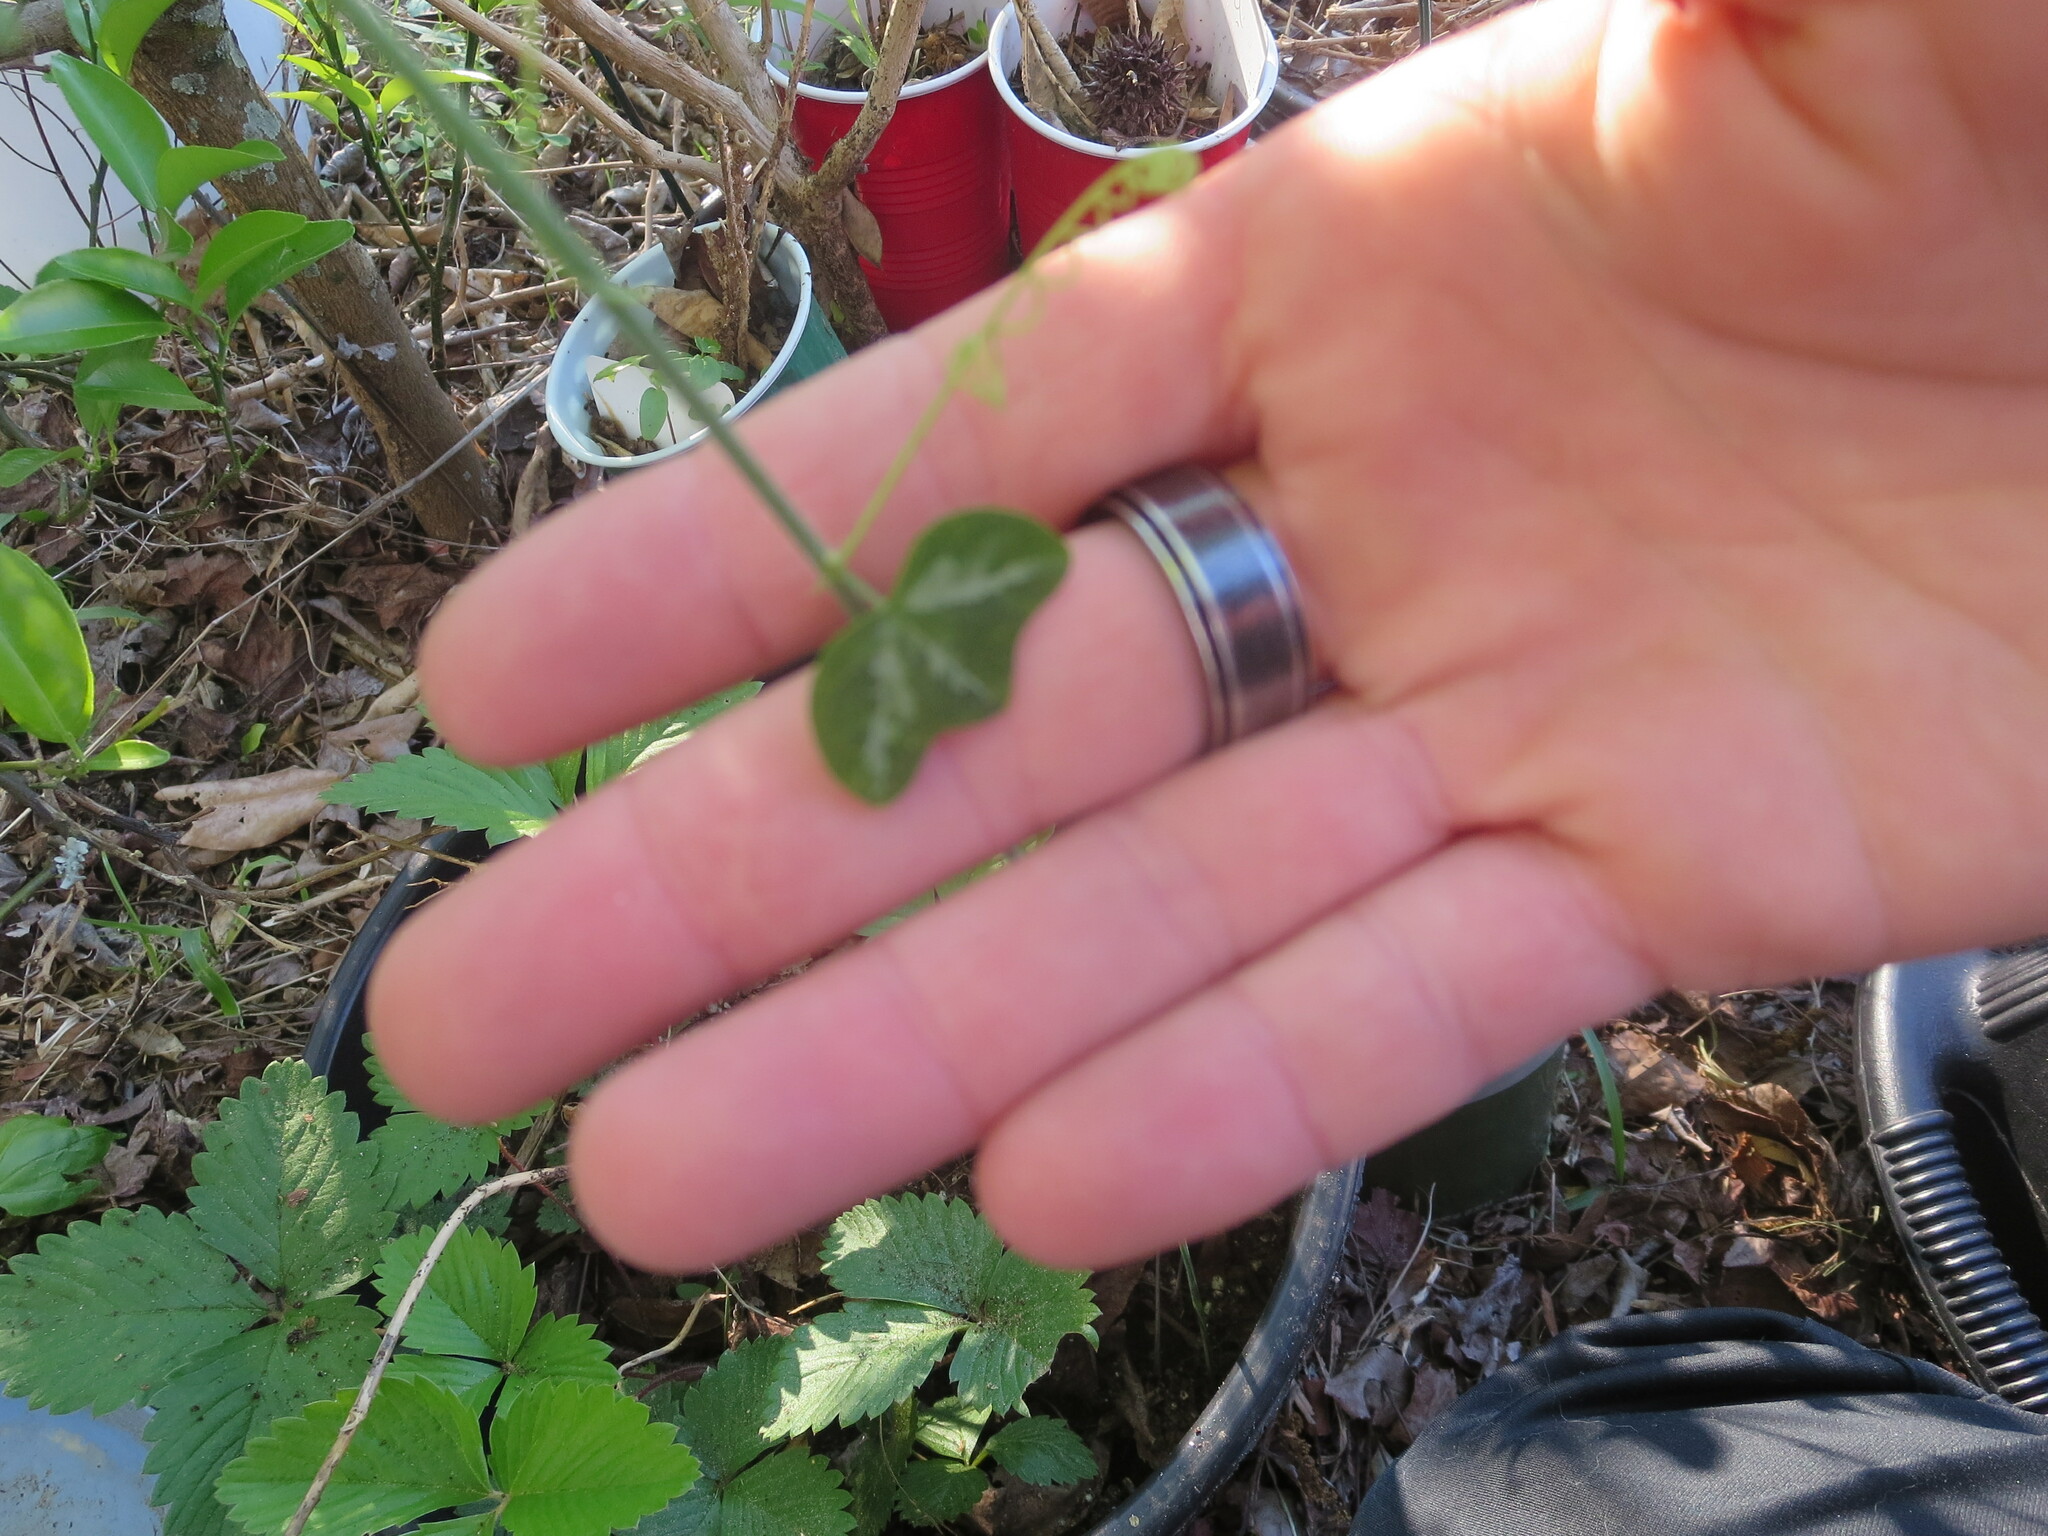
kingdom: Plantae
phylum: Tracheophyta
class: Magnoliopsida
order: Malpighiales
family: Passifloraceae
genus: Passiflora
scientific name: Passiflora lutea
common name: Yellow passionflower
